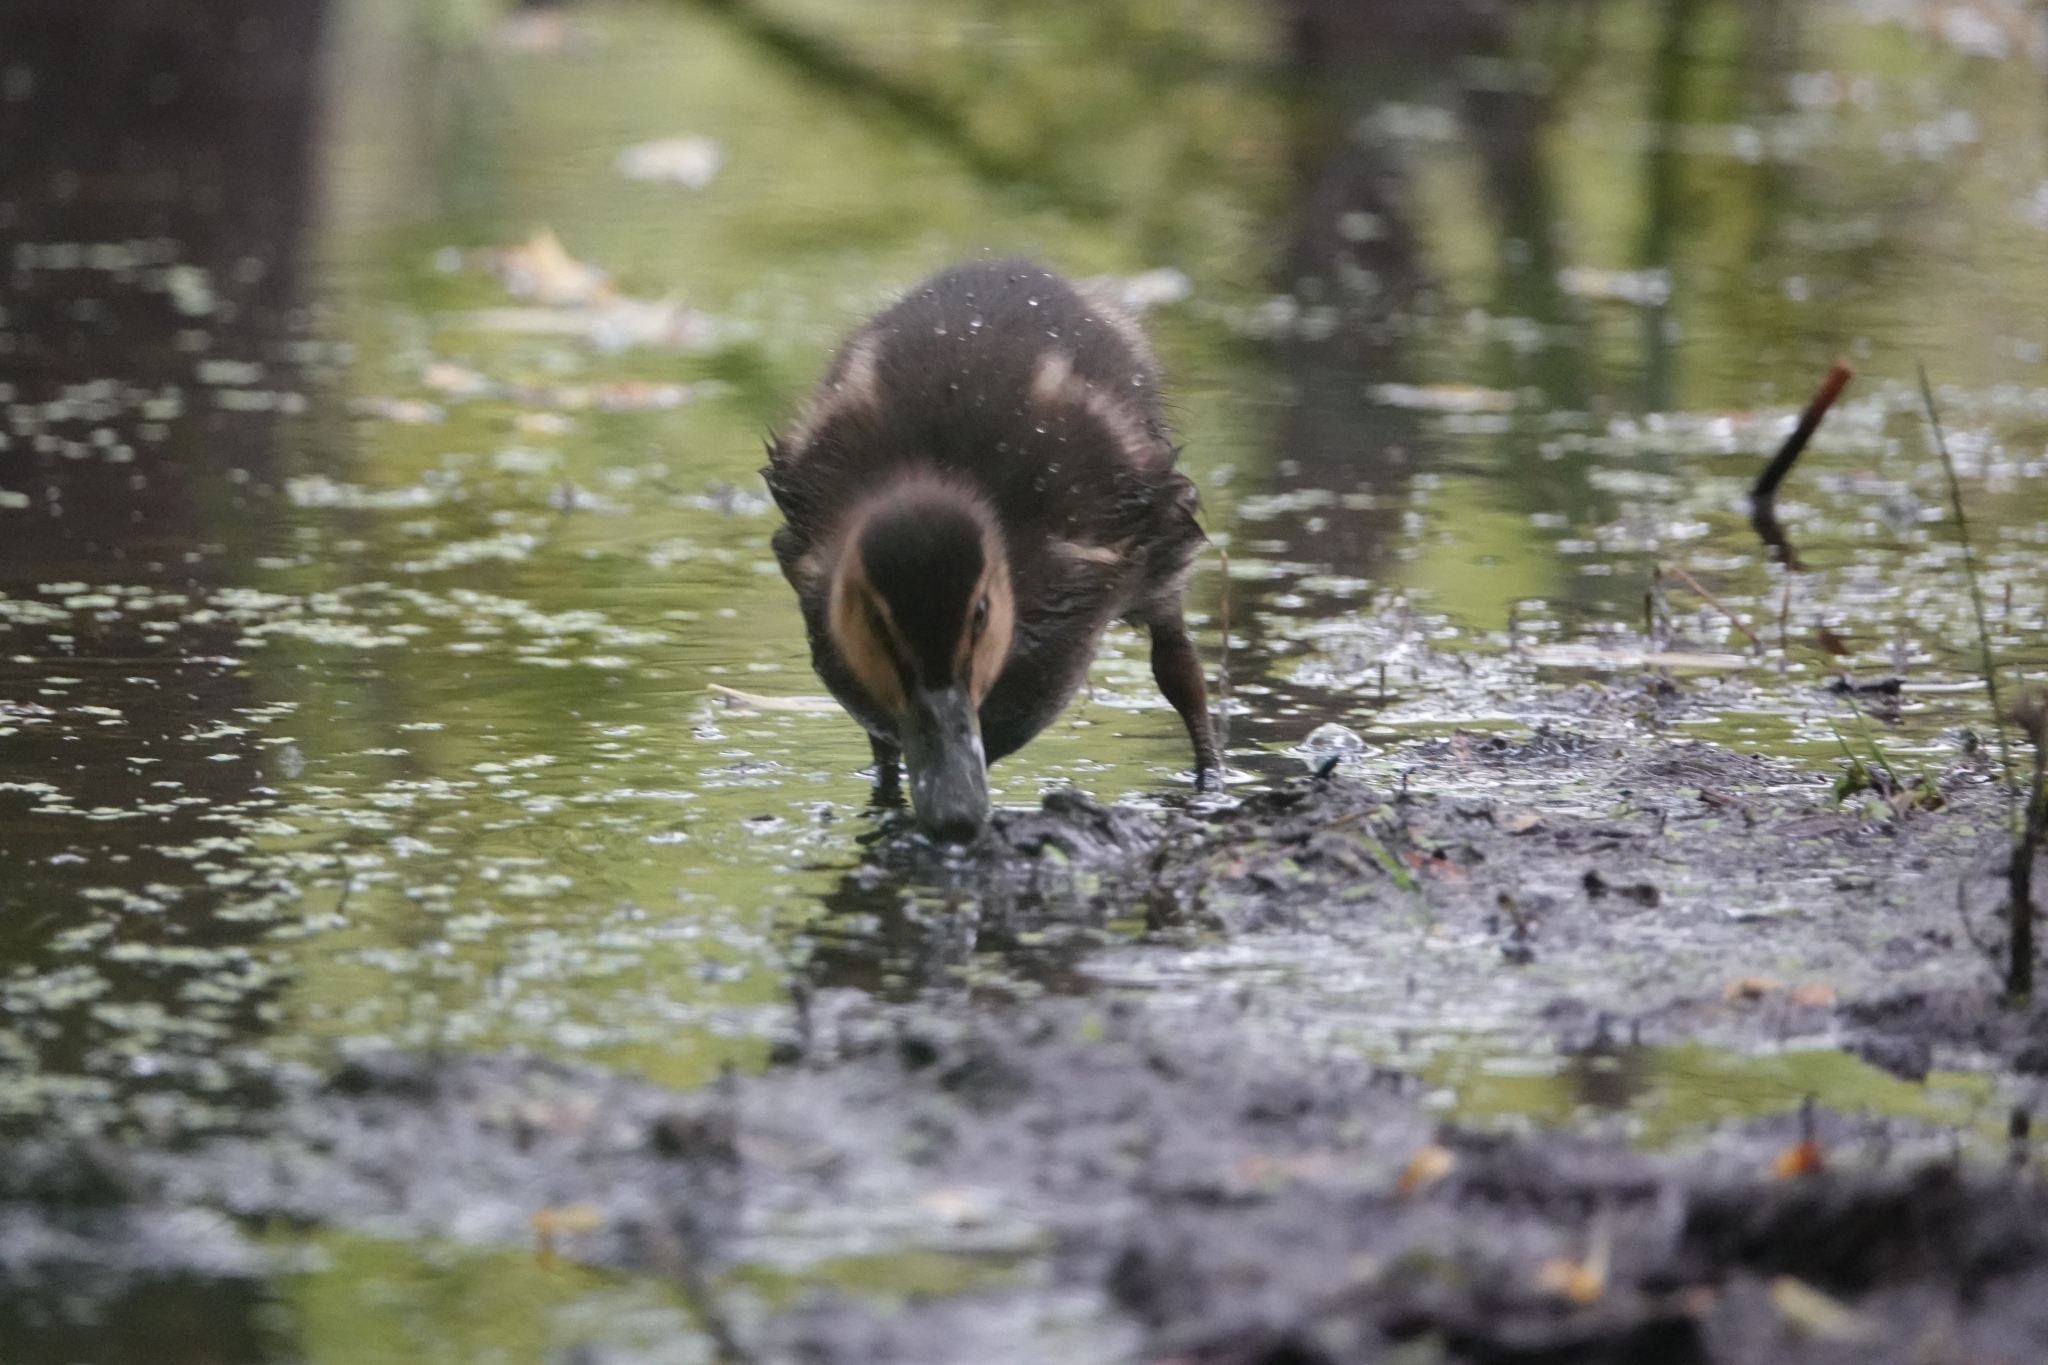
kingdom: Animalia
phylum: Chordata
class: Aves
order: Anseriformes
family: Anatidae
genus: Anas
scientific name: Anas platyrhynchos
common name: Mallard
